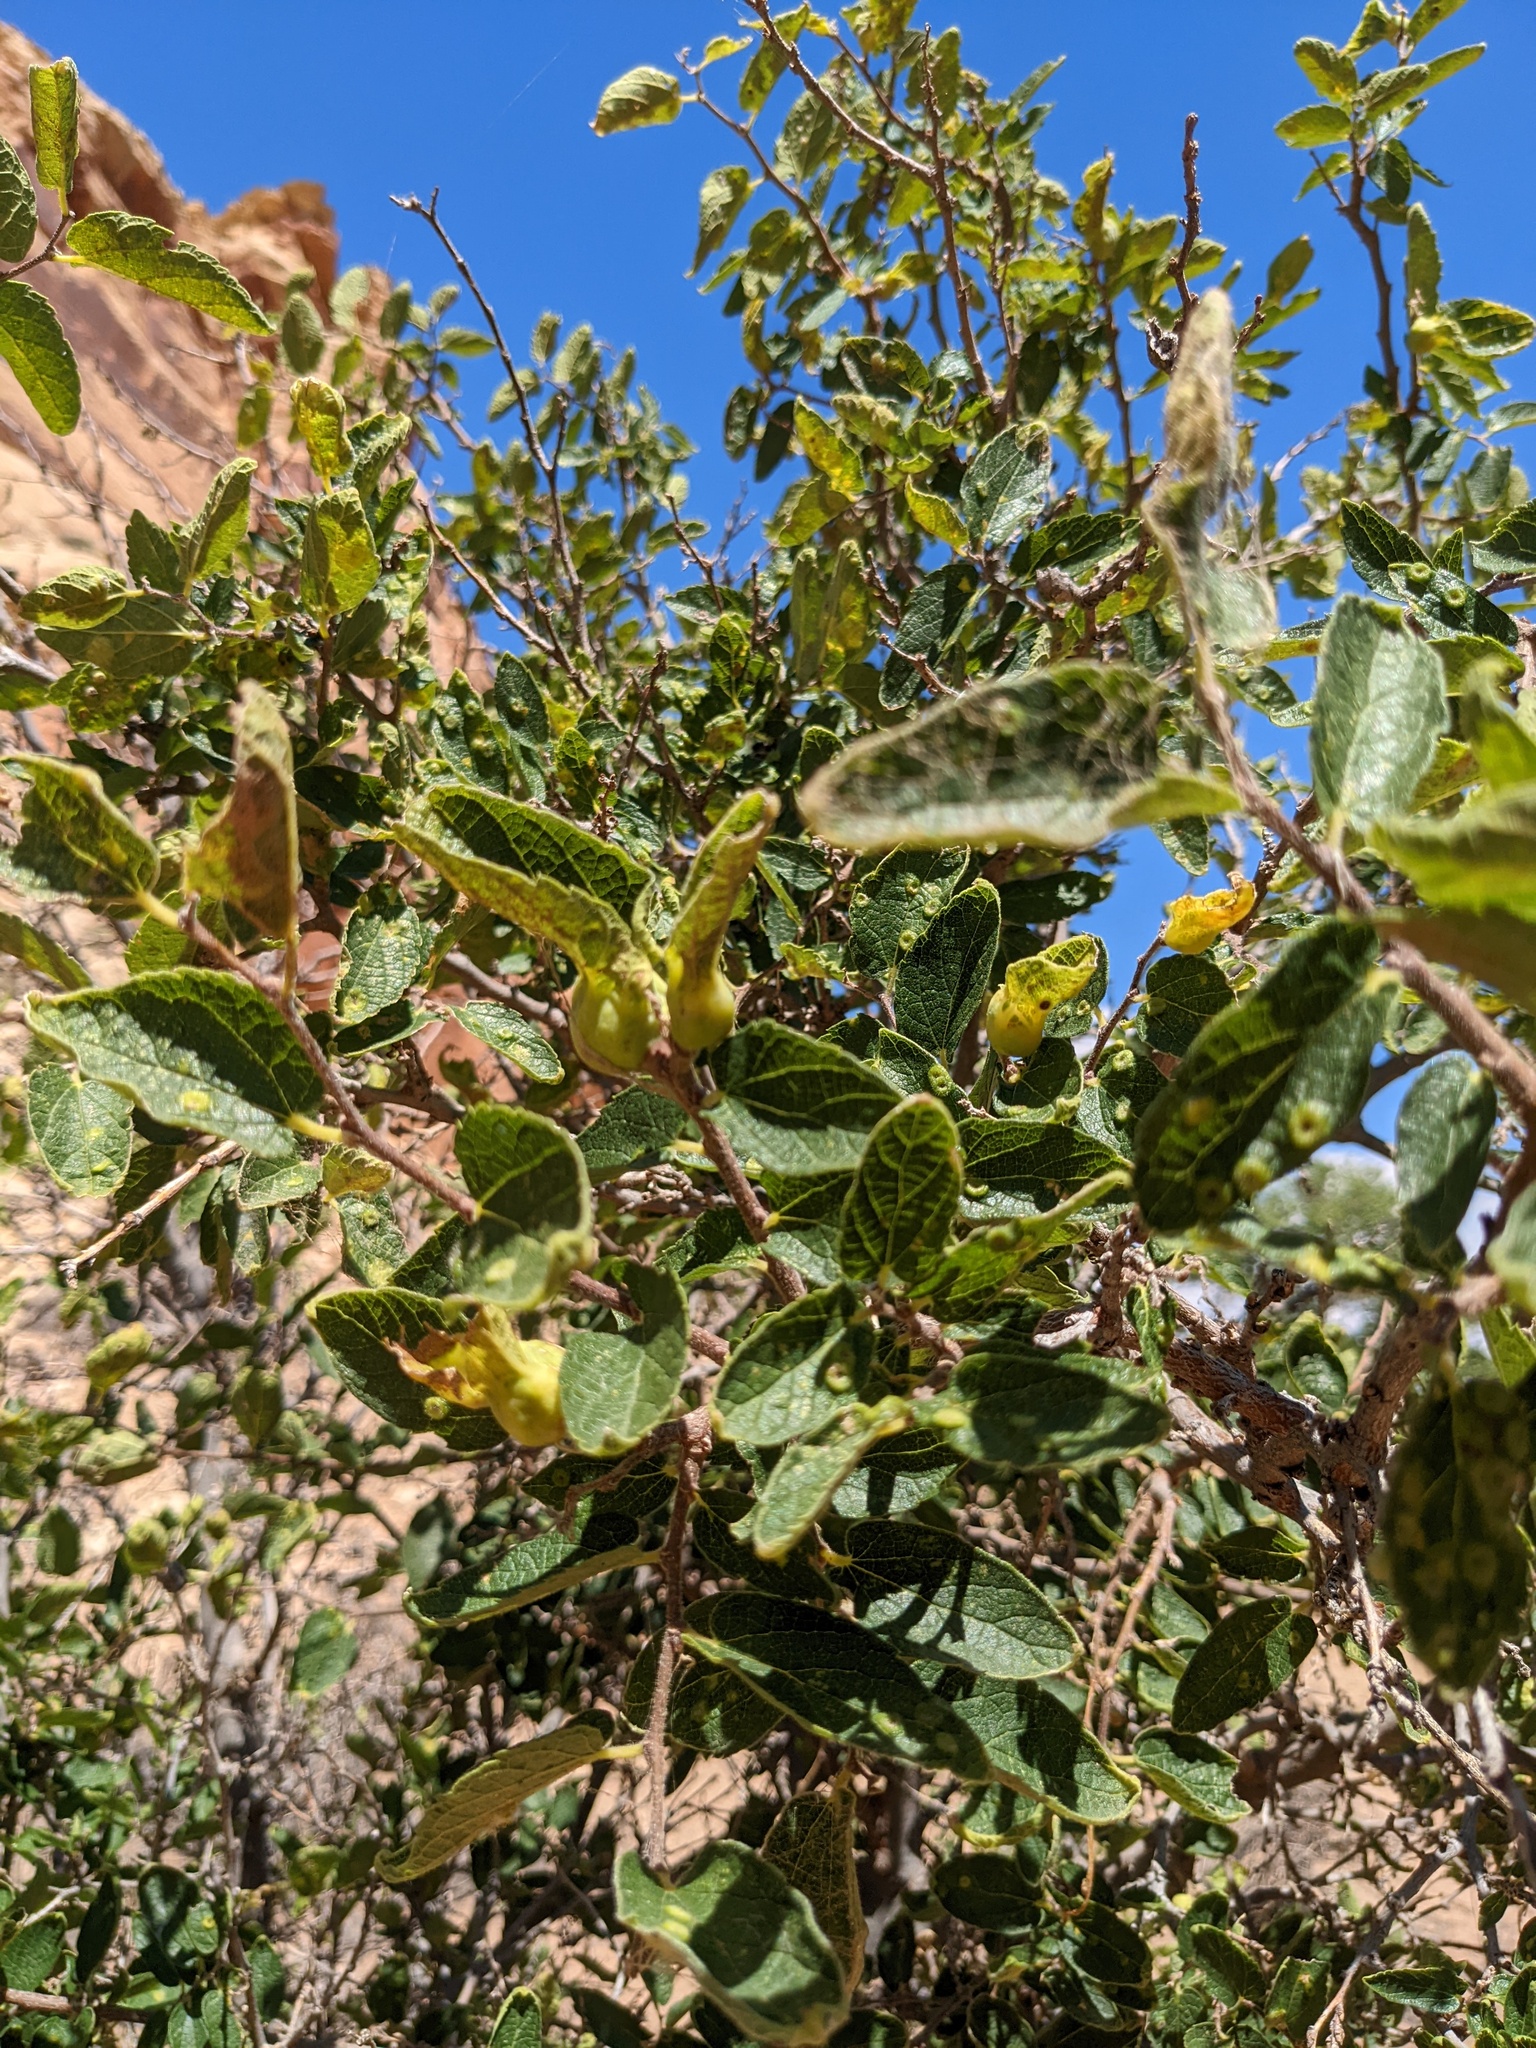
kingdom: Plantae
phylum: Tracheophyta
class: Magnoliopsida
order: Rosales
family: Cannabaceae
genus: Celtis
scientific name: Celtis reticulata
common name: Netleaf hackberry
